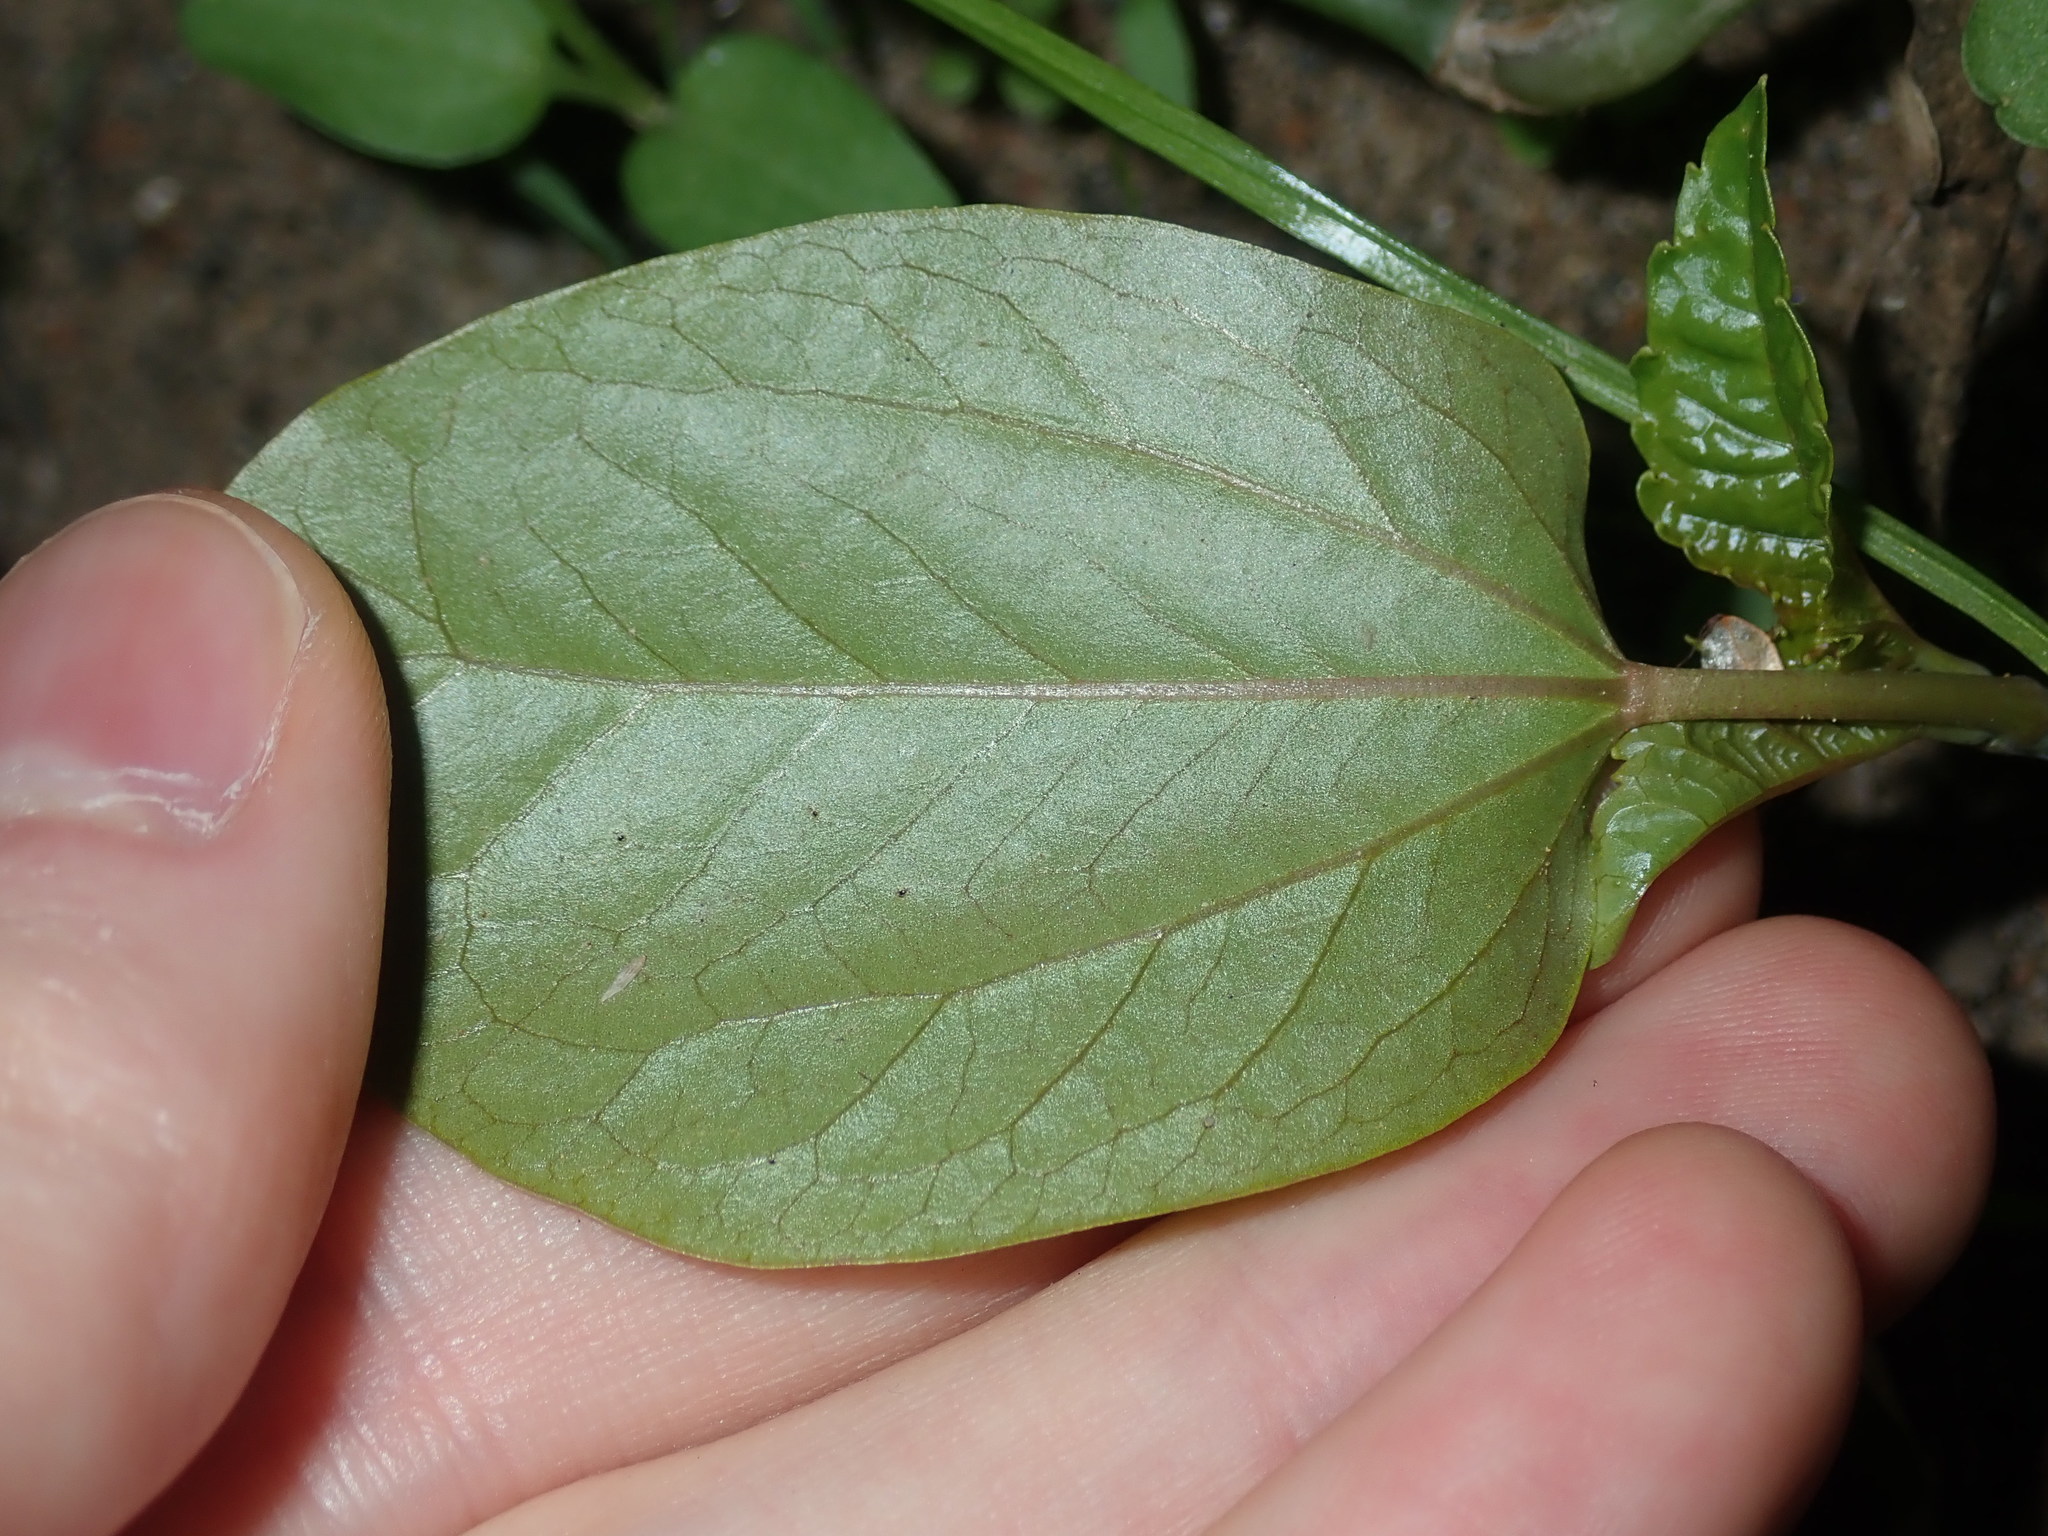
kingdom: Plantae
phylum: Tracheophyta
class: Magnoliopsida
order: Malpighiales
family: Euphorbiaceae
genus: Ricinus
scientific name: Ricinus communis
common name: Castor-oil-plant
